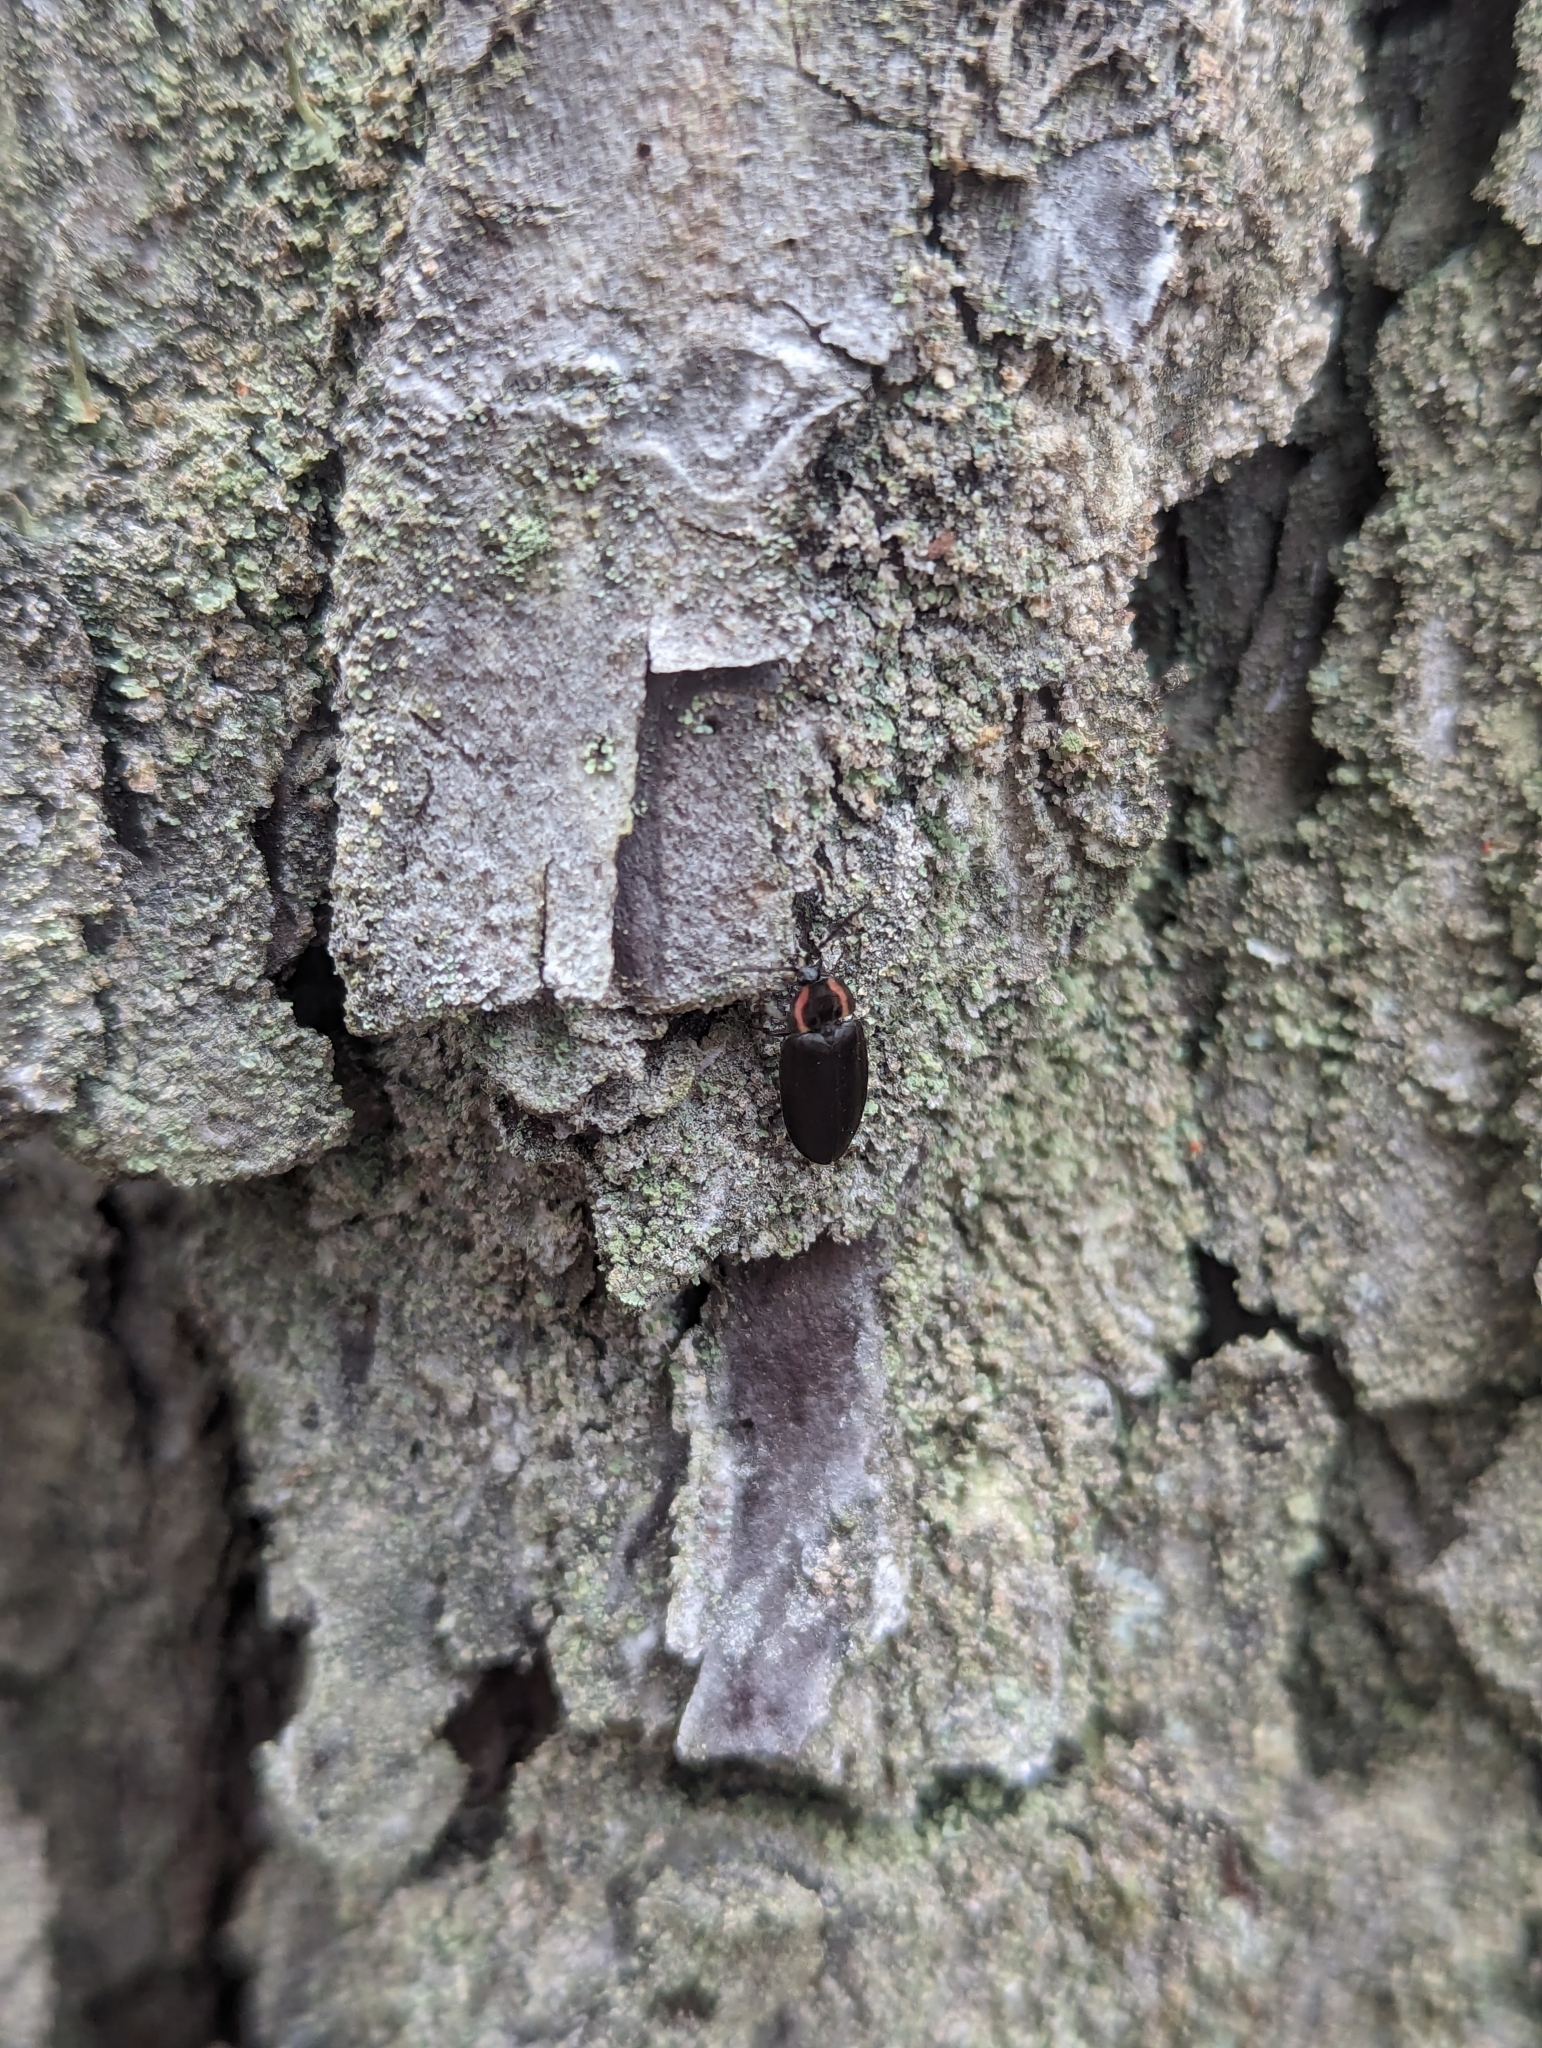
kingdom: Animalia
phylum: Arthropoda
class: Insecta
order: Coleoptera
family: Lampyridae
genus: Photinus
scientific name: Photinus corrusca
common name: Winter firefly
